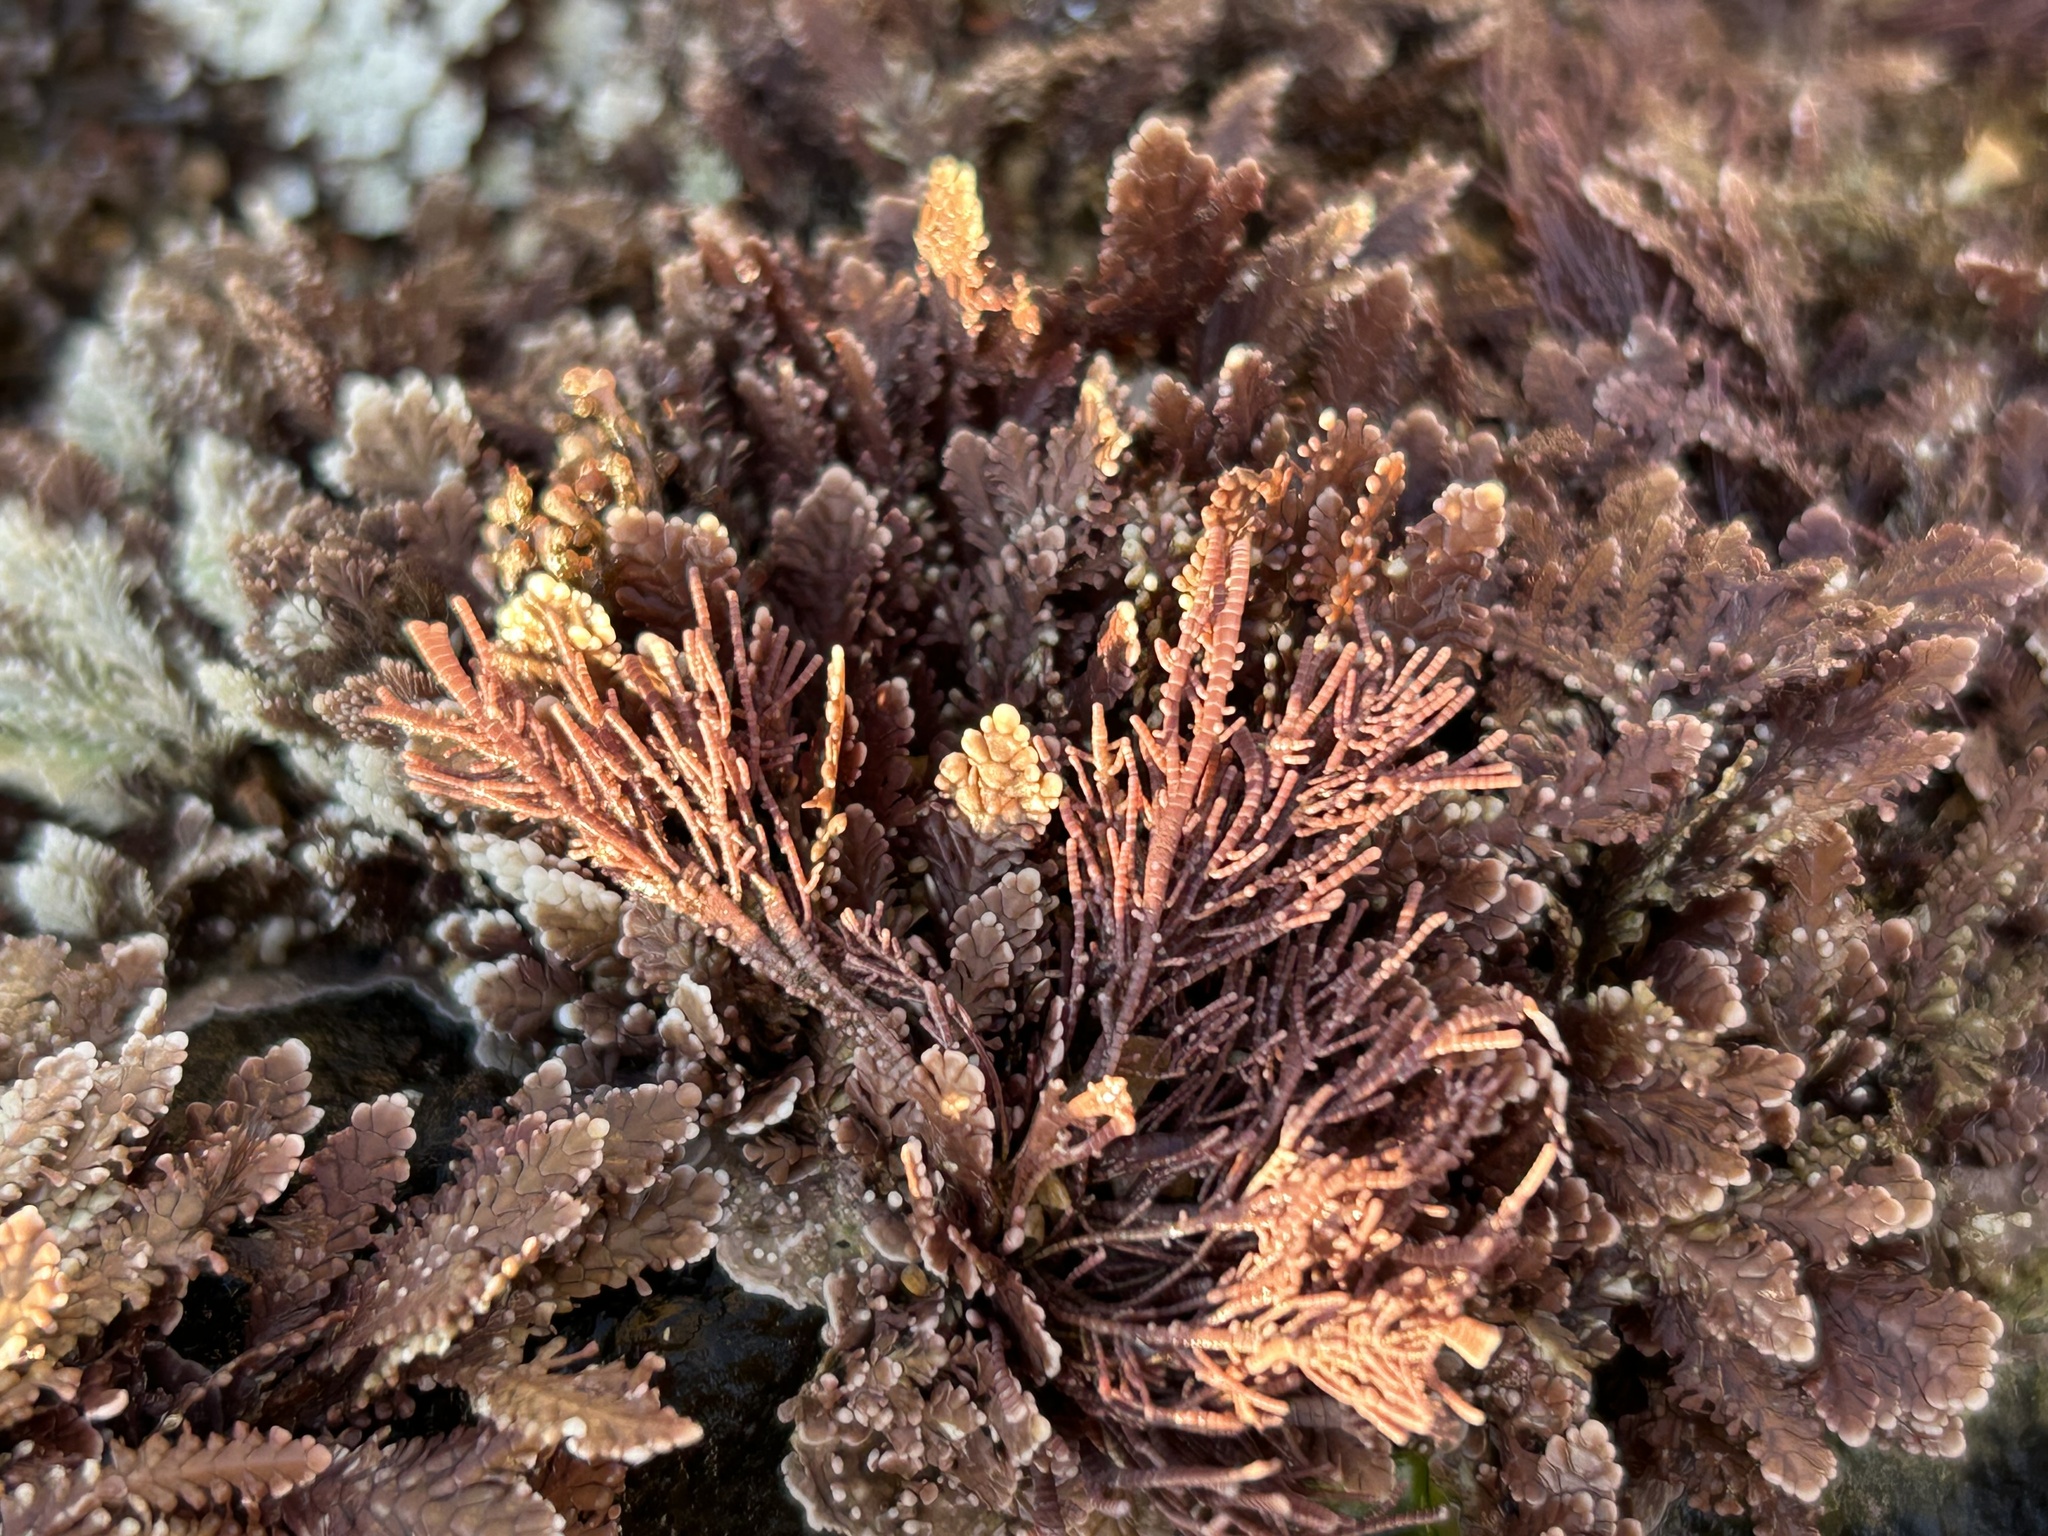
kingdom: Plantae
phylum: Rhodophyta
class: Florideophyceae
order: Corallinales
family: Lithophyllaceae
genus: Lithothrix
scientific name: Lithothrix aspergillum
